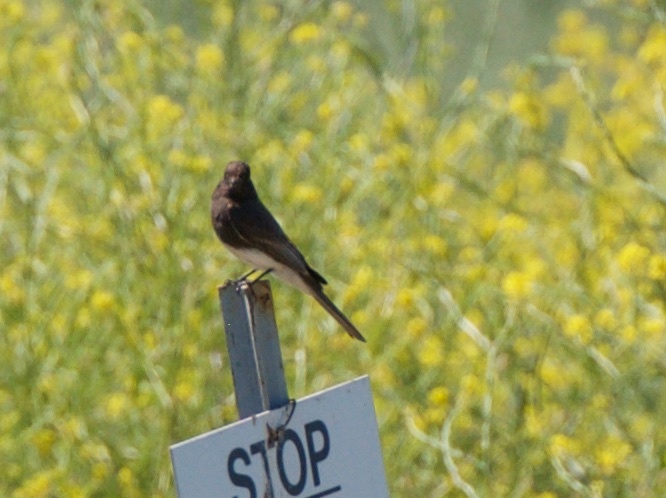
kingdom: Animalia
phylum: Chordata
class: Aves
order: Passeriformes
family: Tyrannidae
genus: Sayornis
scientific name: Sayornis nigricans
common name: Black phoebe
